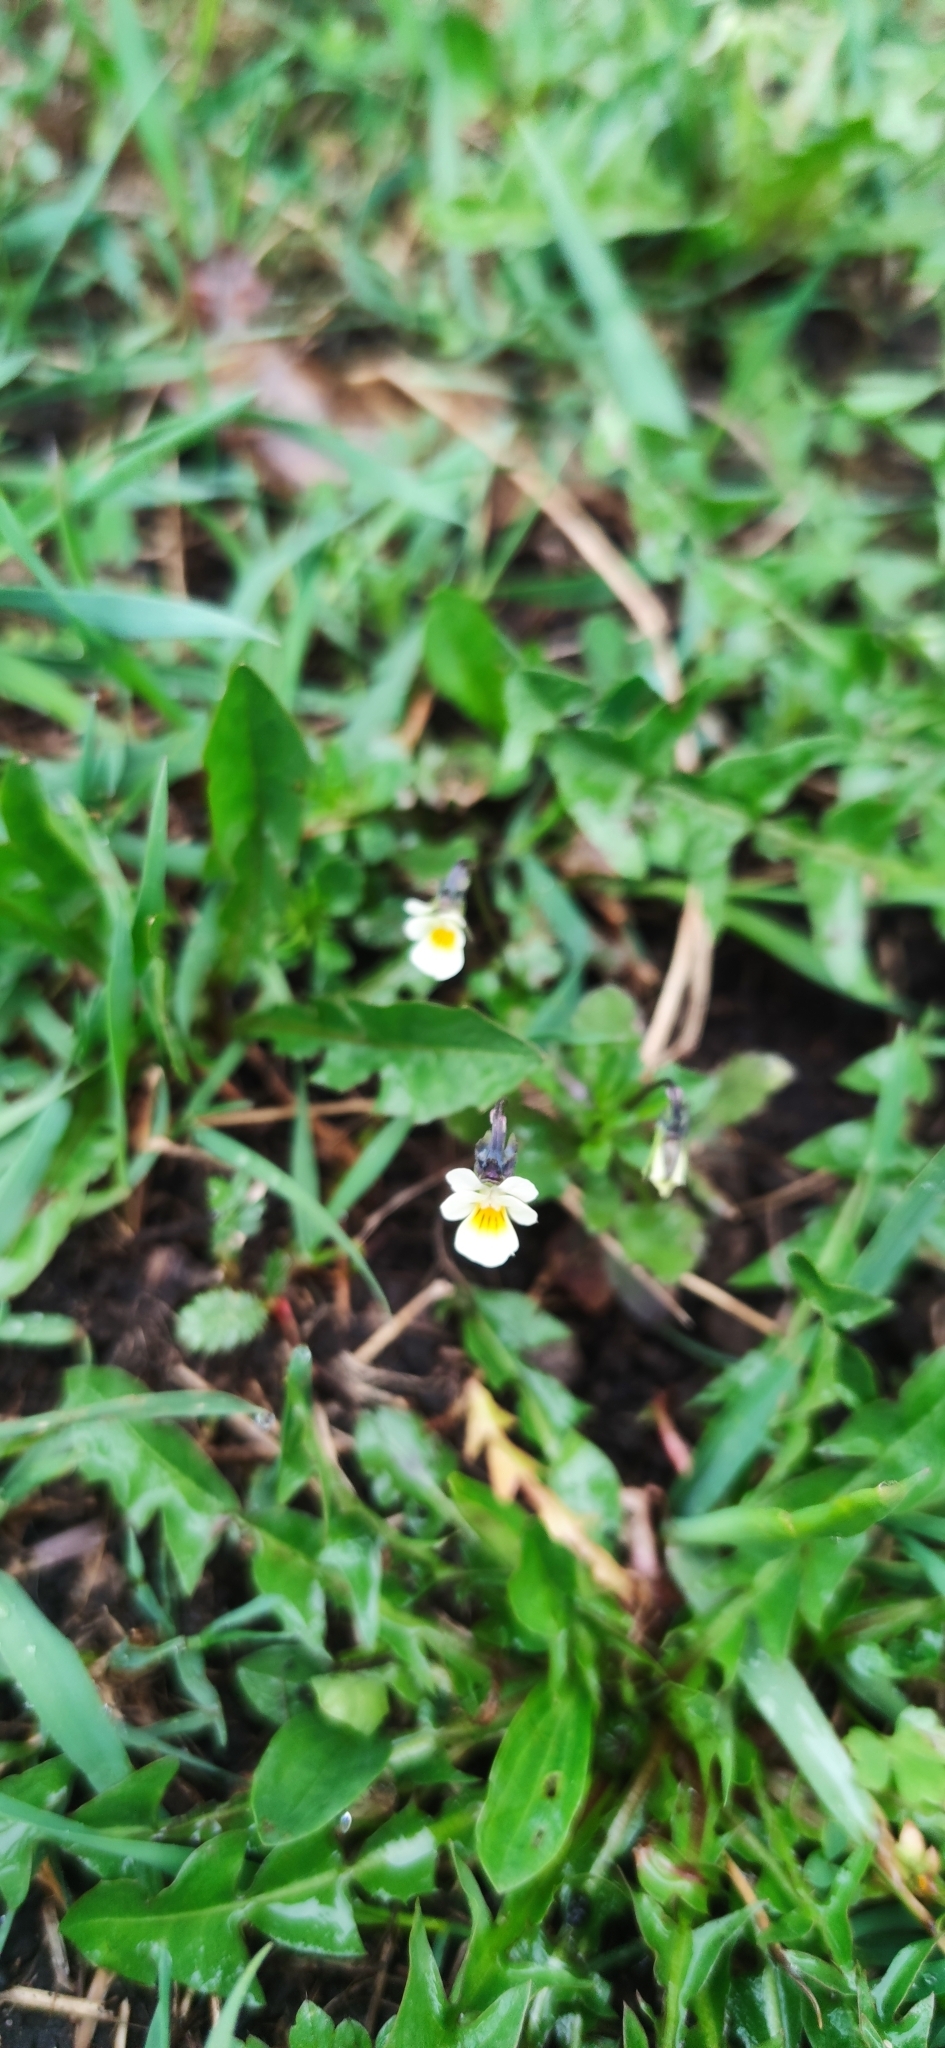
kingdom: Plantae
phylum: Tracheophyta
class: Magnoliopsida
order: Malpighiales
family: Violaceae
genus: Viola
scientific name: Viola arvensis
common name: Field pansy
